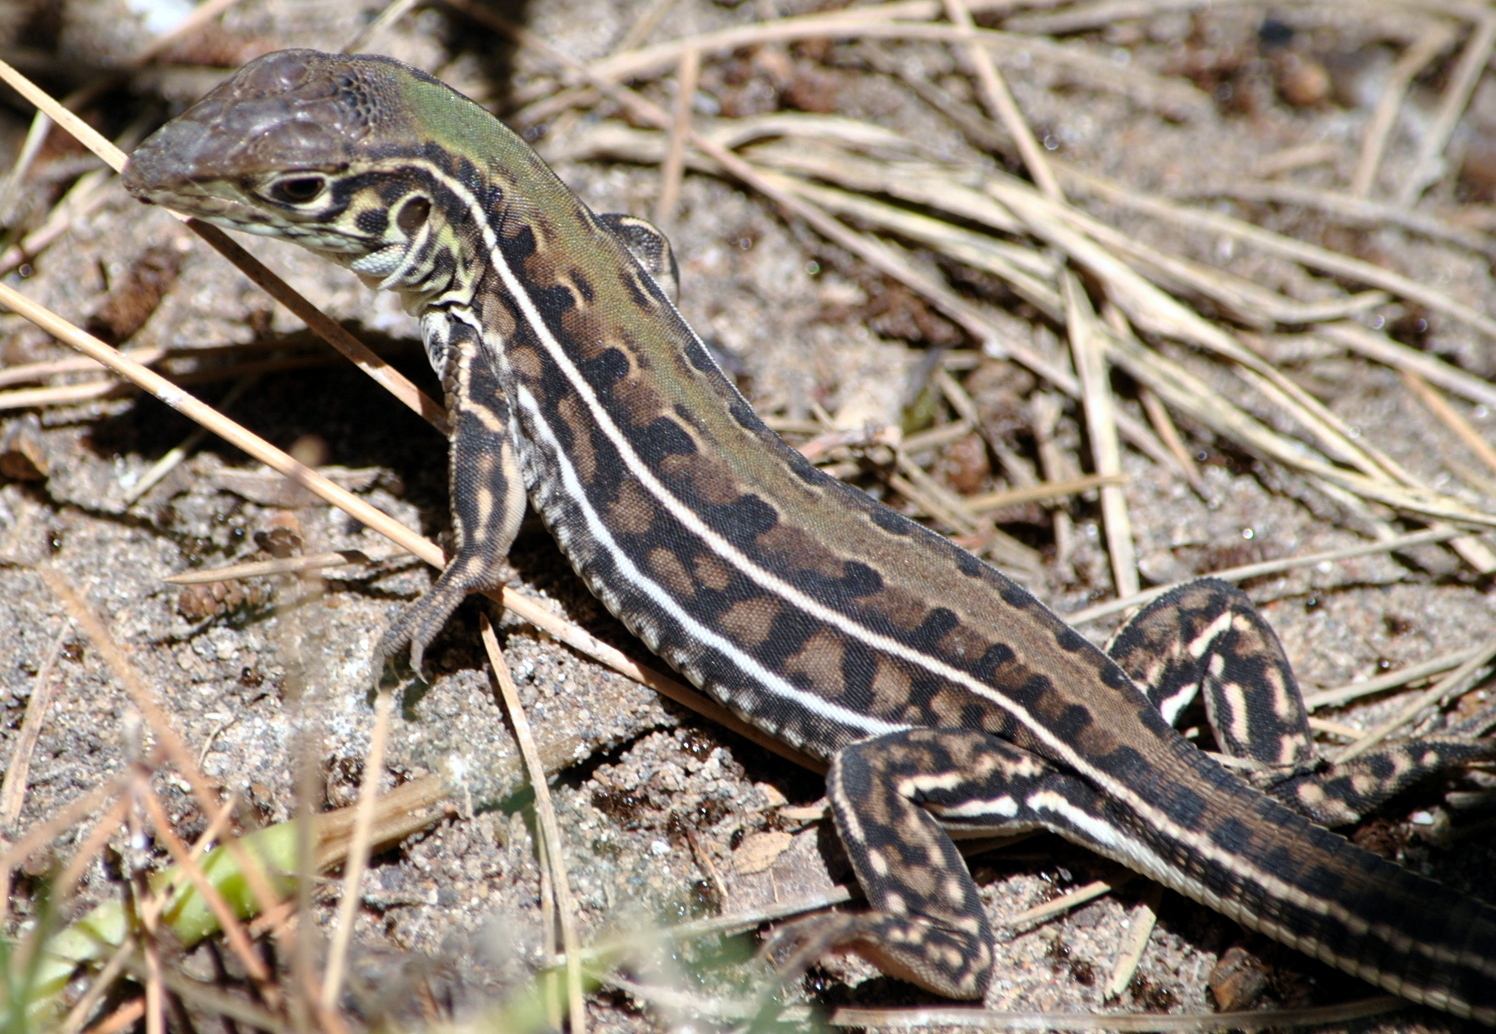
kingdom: Animalia
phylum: Chordata
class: Squamata
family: Teiidae
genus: Teius
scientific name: Teius oculatus
